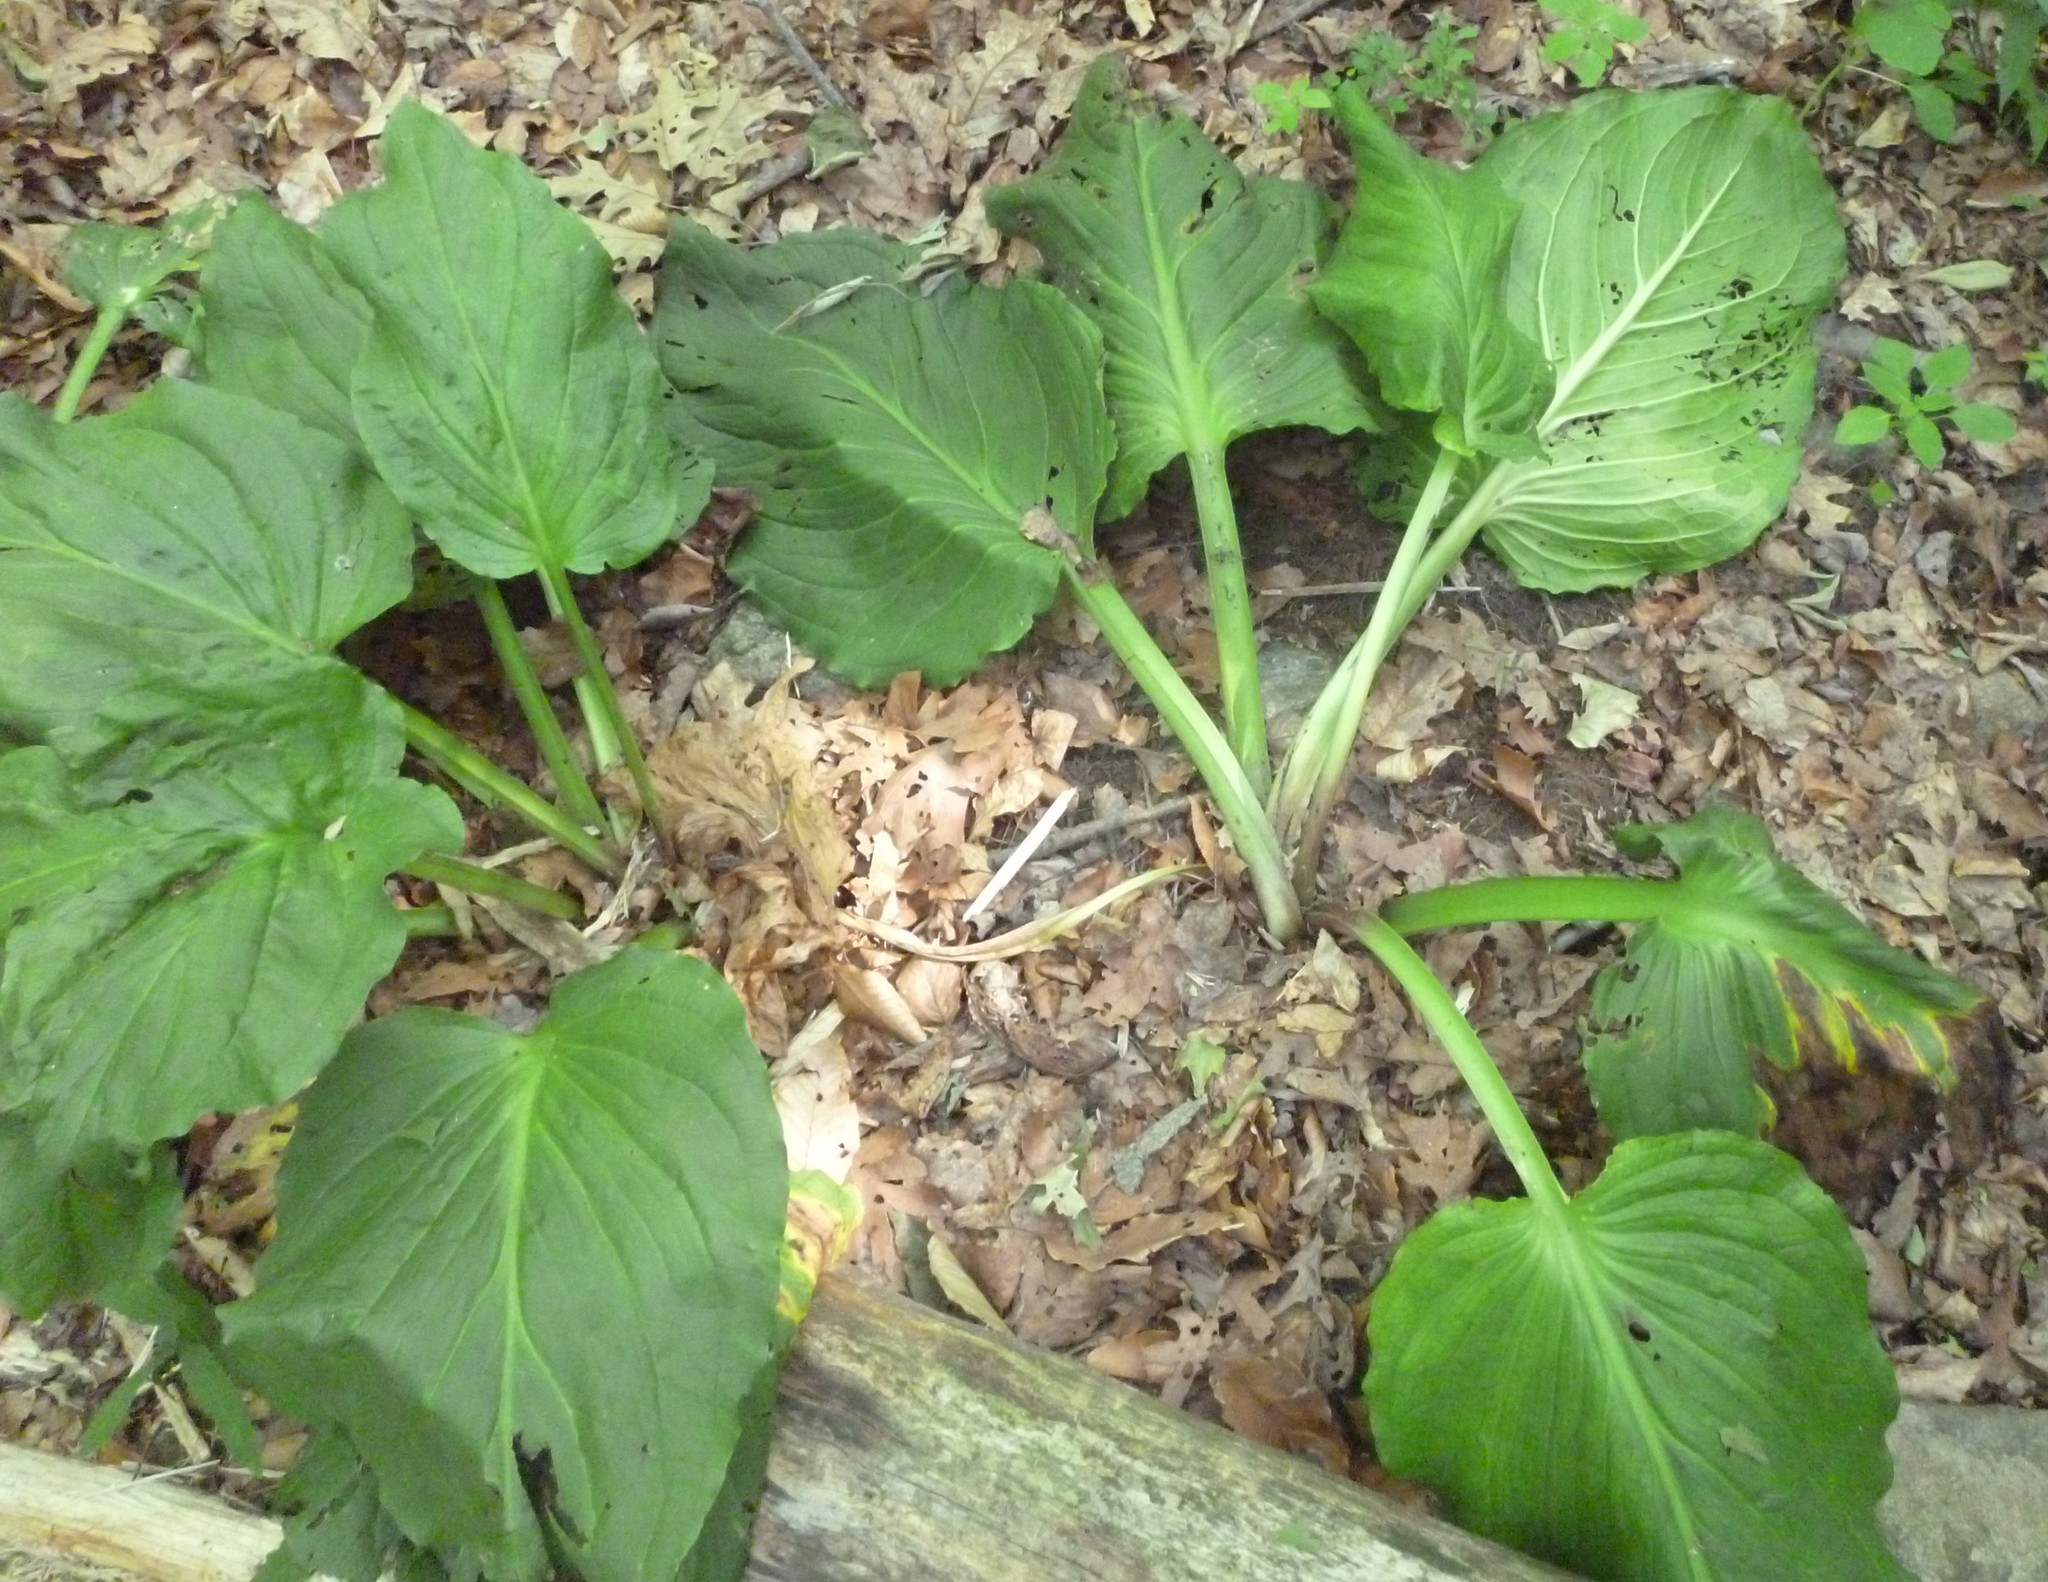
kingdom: Plantae
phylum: Tracheophyta
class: Liliopsida
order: Alismatales
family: Araceae
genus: Symplocarpus
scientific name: Symplocarpus foetidus
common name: Eastern skunk cabbage
